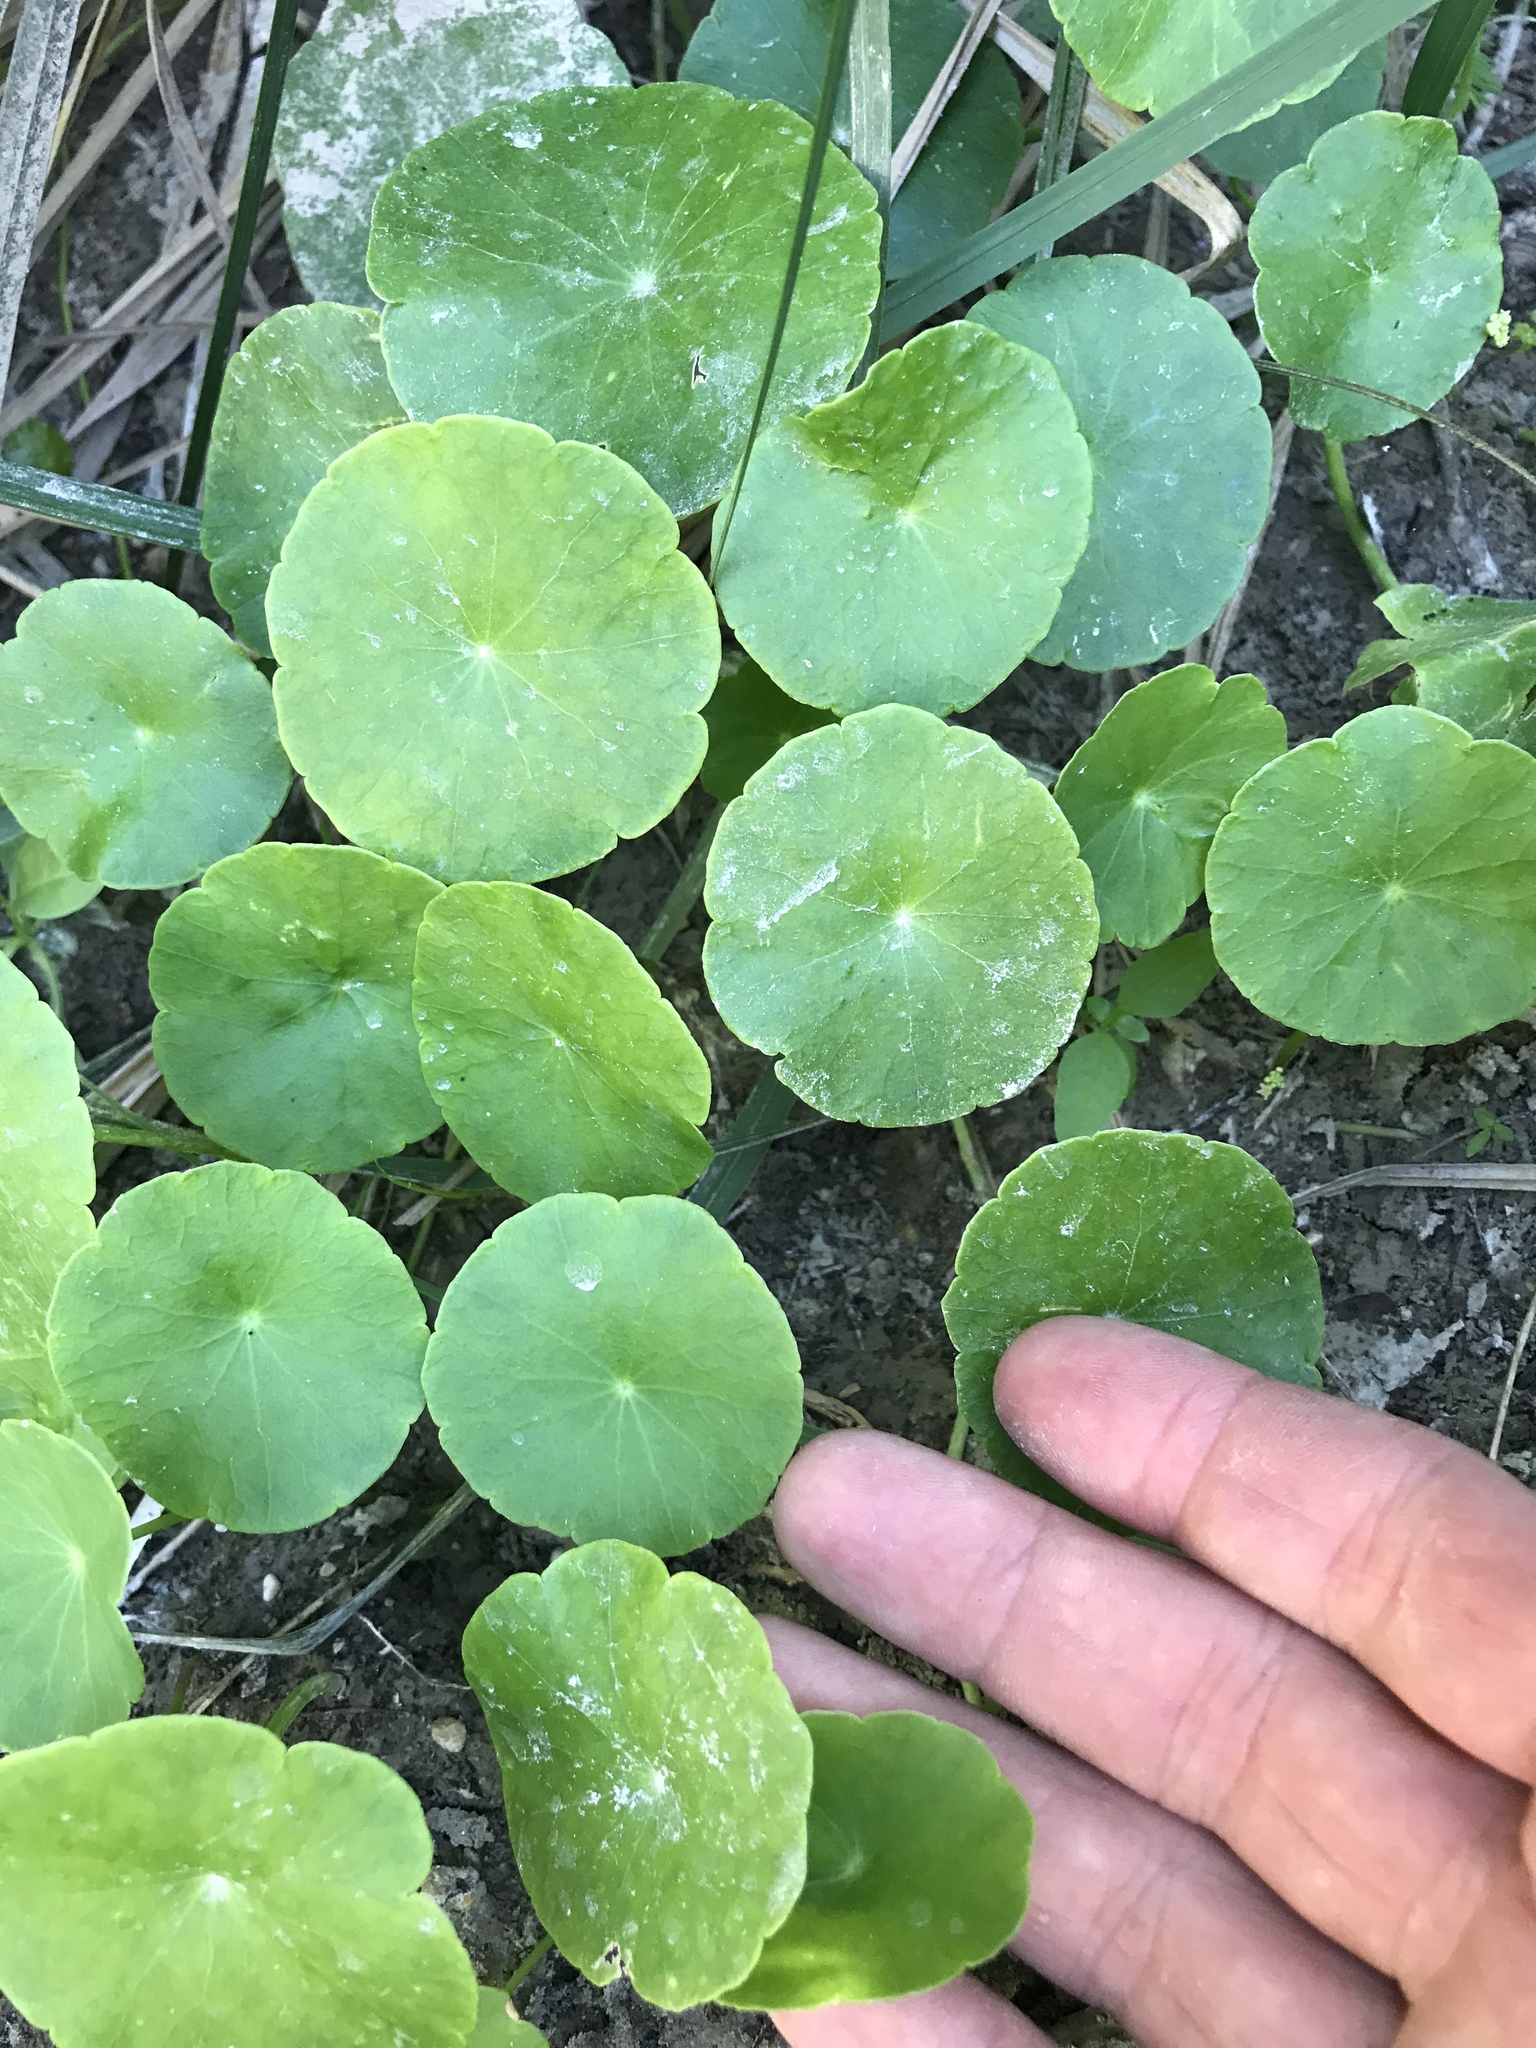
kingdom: Plantae
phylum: Tracheophyta
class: Magnoliopsida
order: Apiales
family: Araliaceae
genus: Hydrocotyle
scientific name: Hydrocotyle verticillata
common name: Whorled marshpennywort
